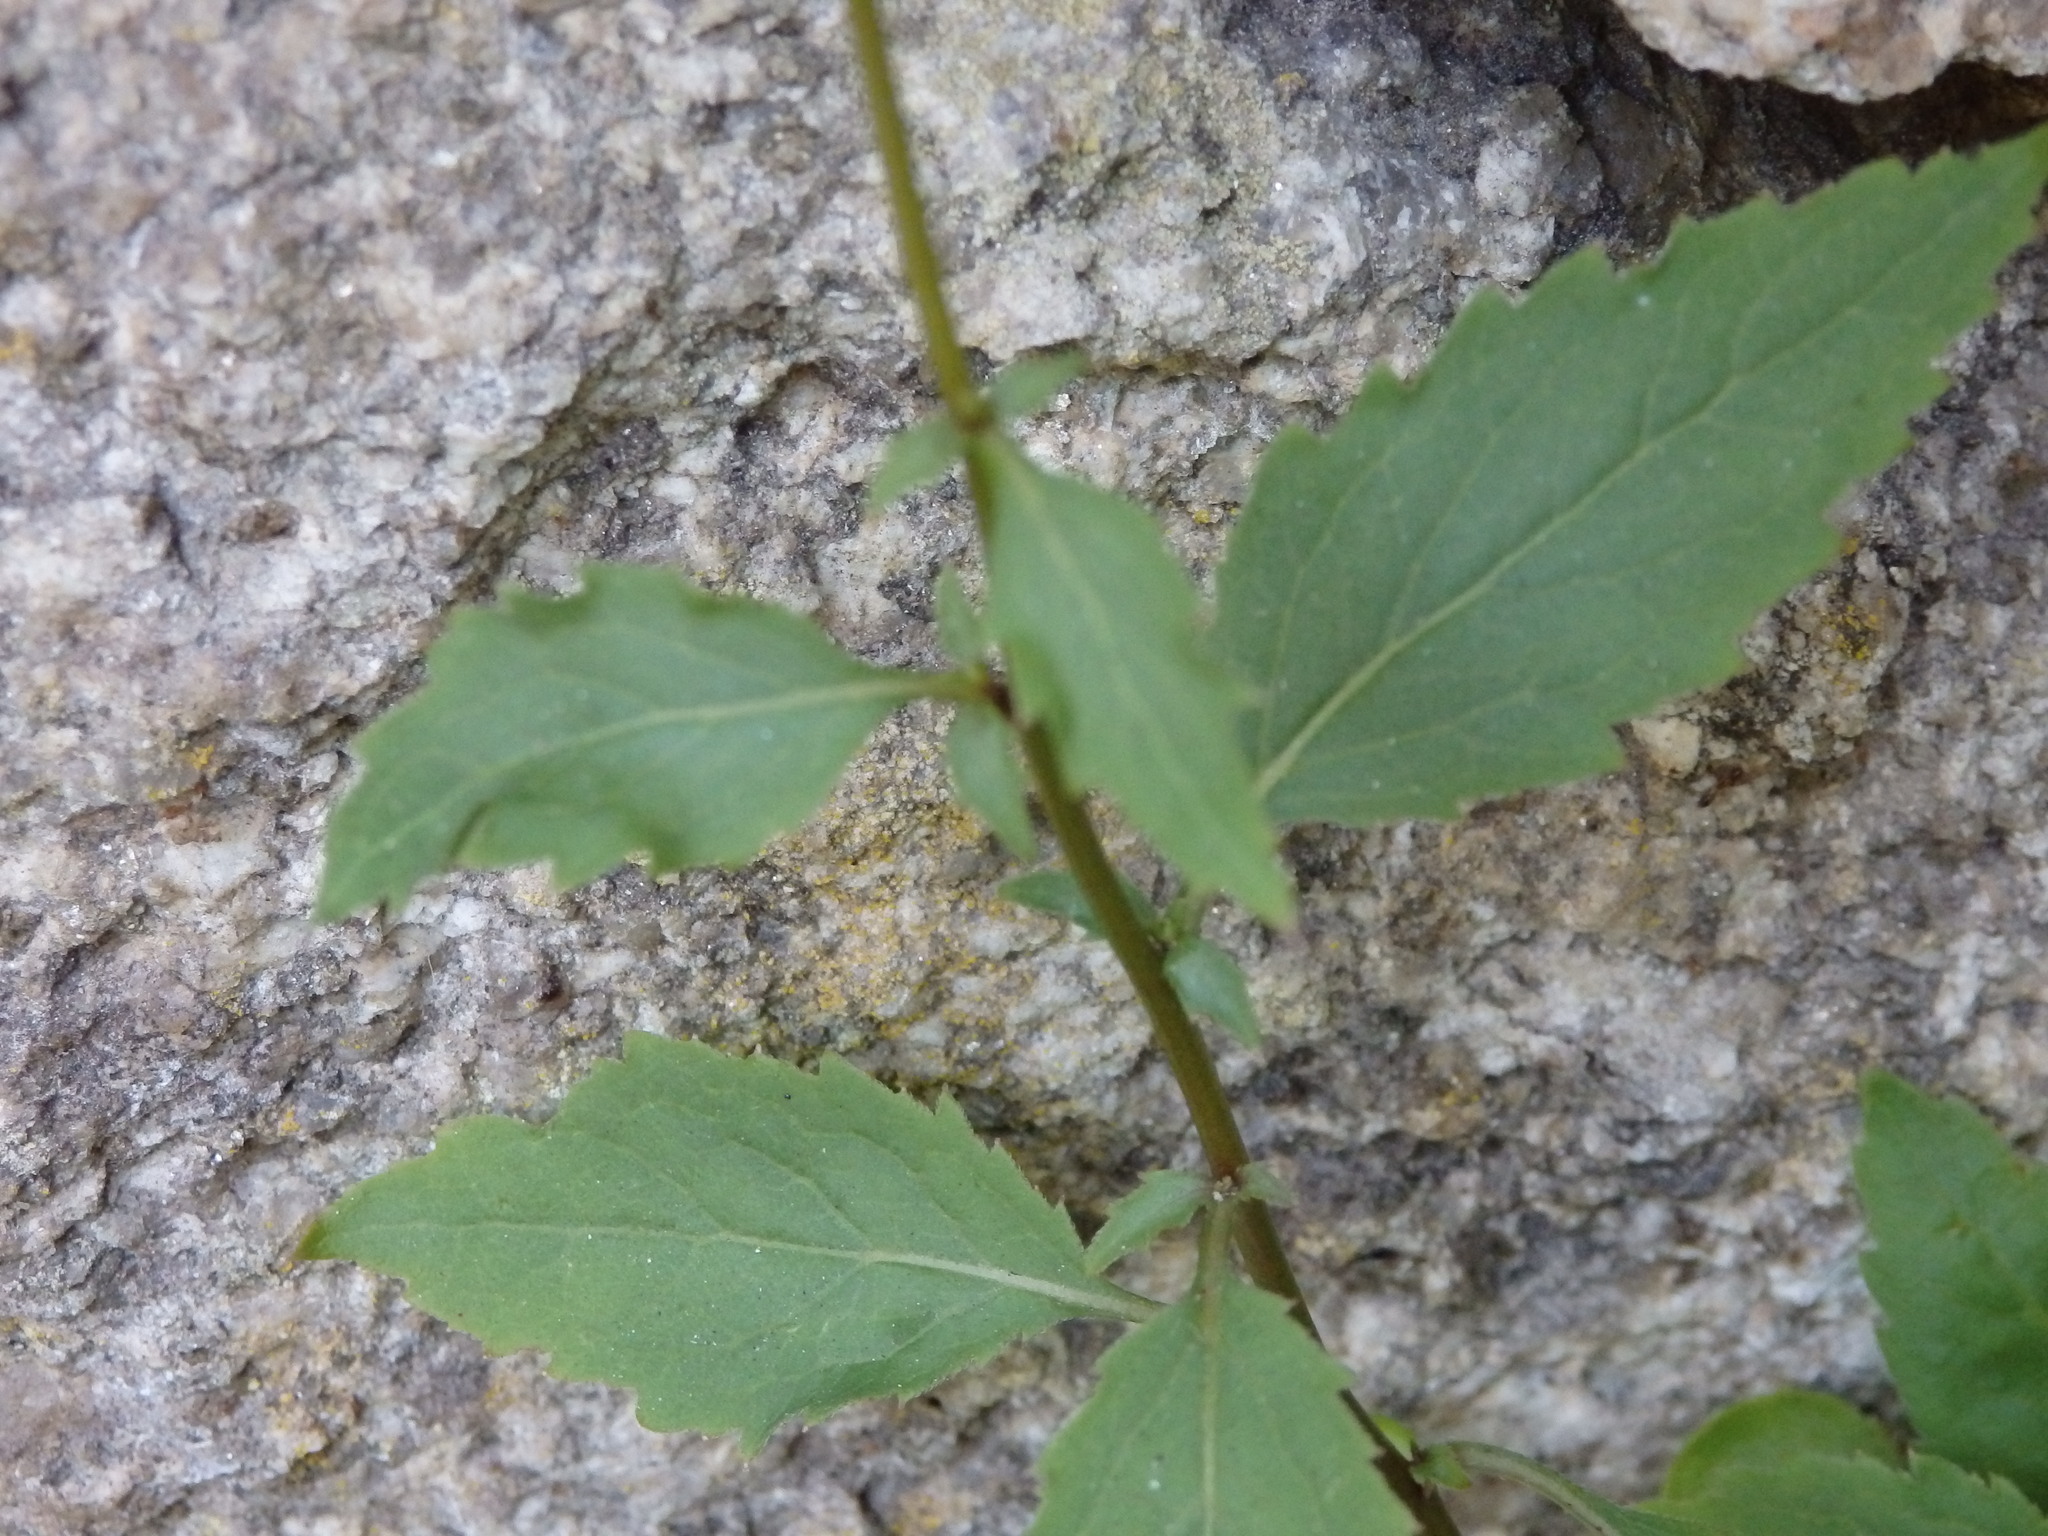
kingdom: Plantae
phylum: Tracheophyta
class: Magnoliopsida
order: Asterales
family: Campanulaceae
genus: Trachelium
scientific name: Trachelium caeruleum
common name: Throatwort
